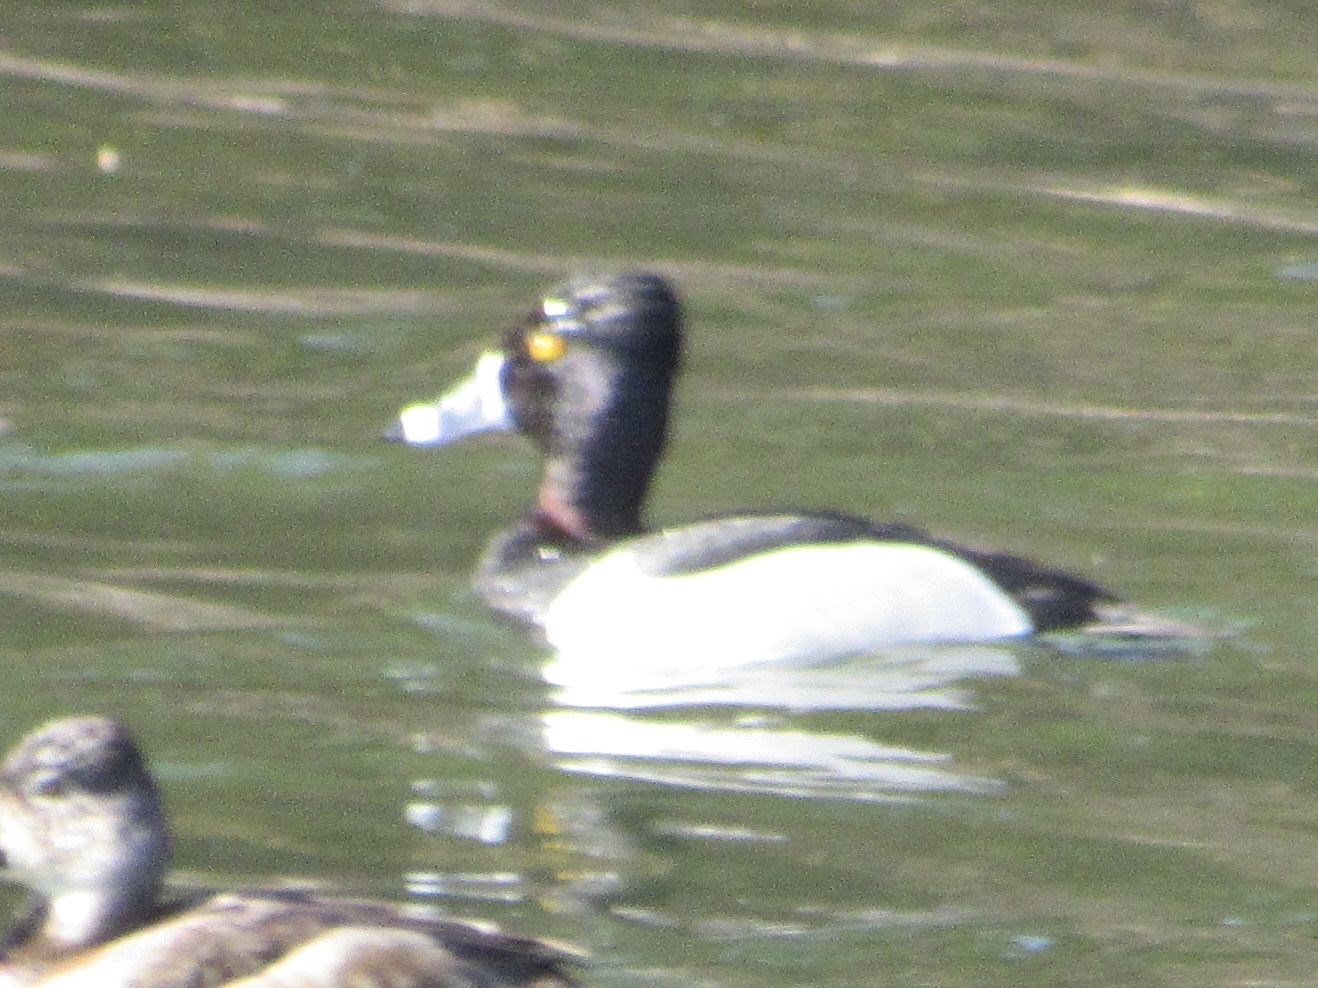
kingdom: Animalia
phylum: Chordata
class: Aves
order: Anseriformes
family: Anatidae
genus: Aythya
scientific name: Aythya collaris
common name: Ring-necked duck
